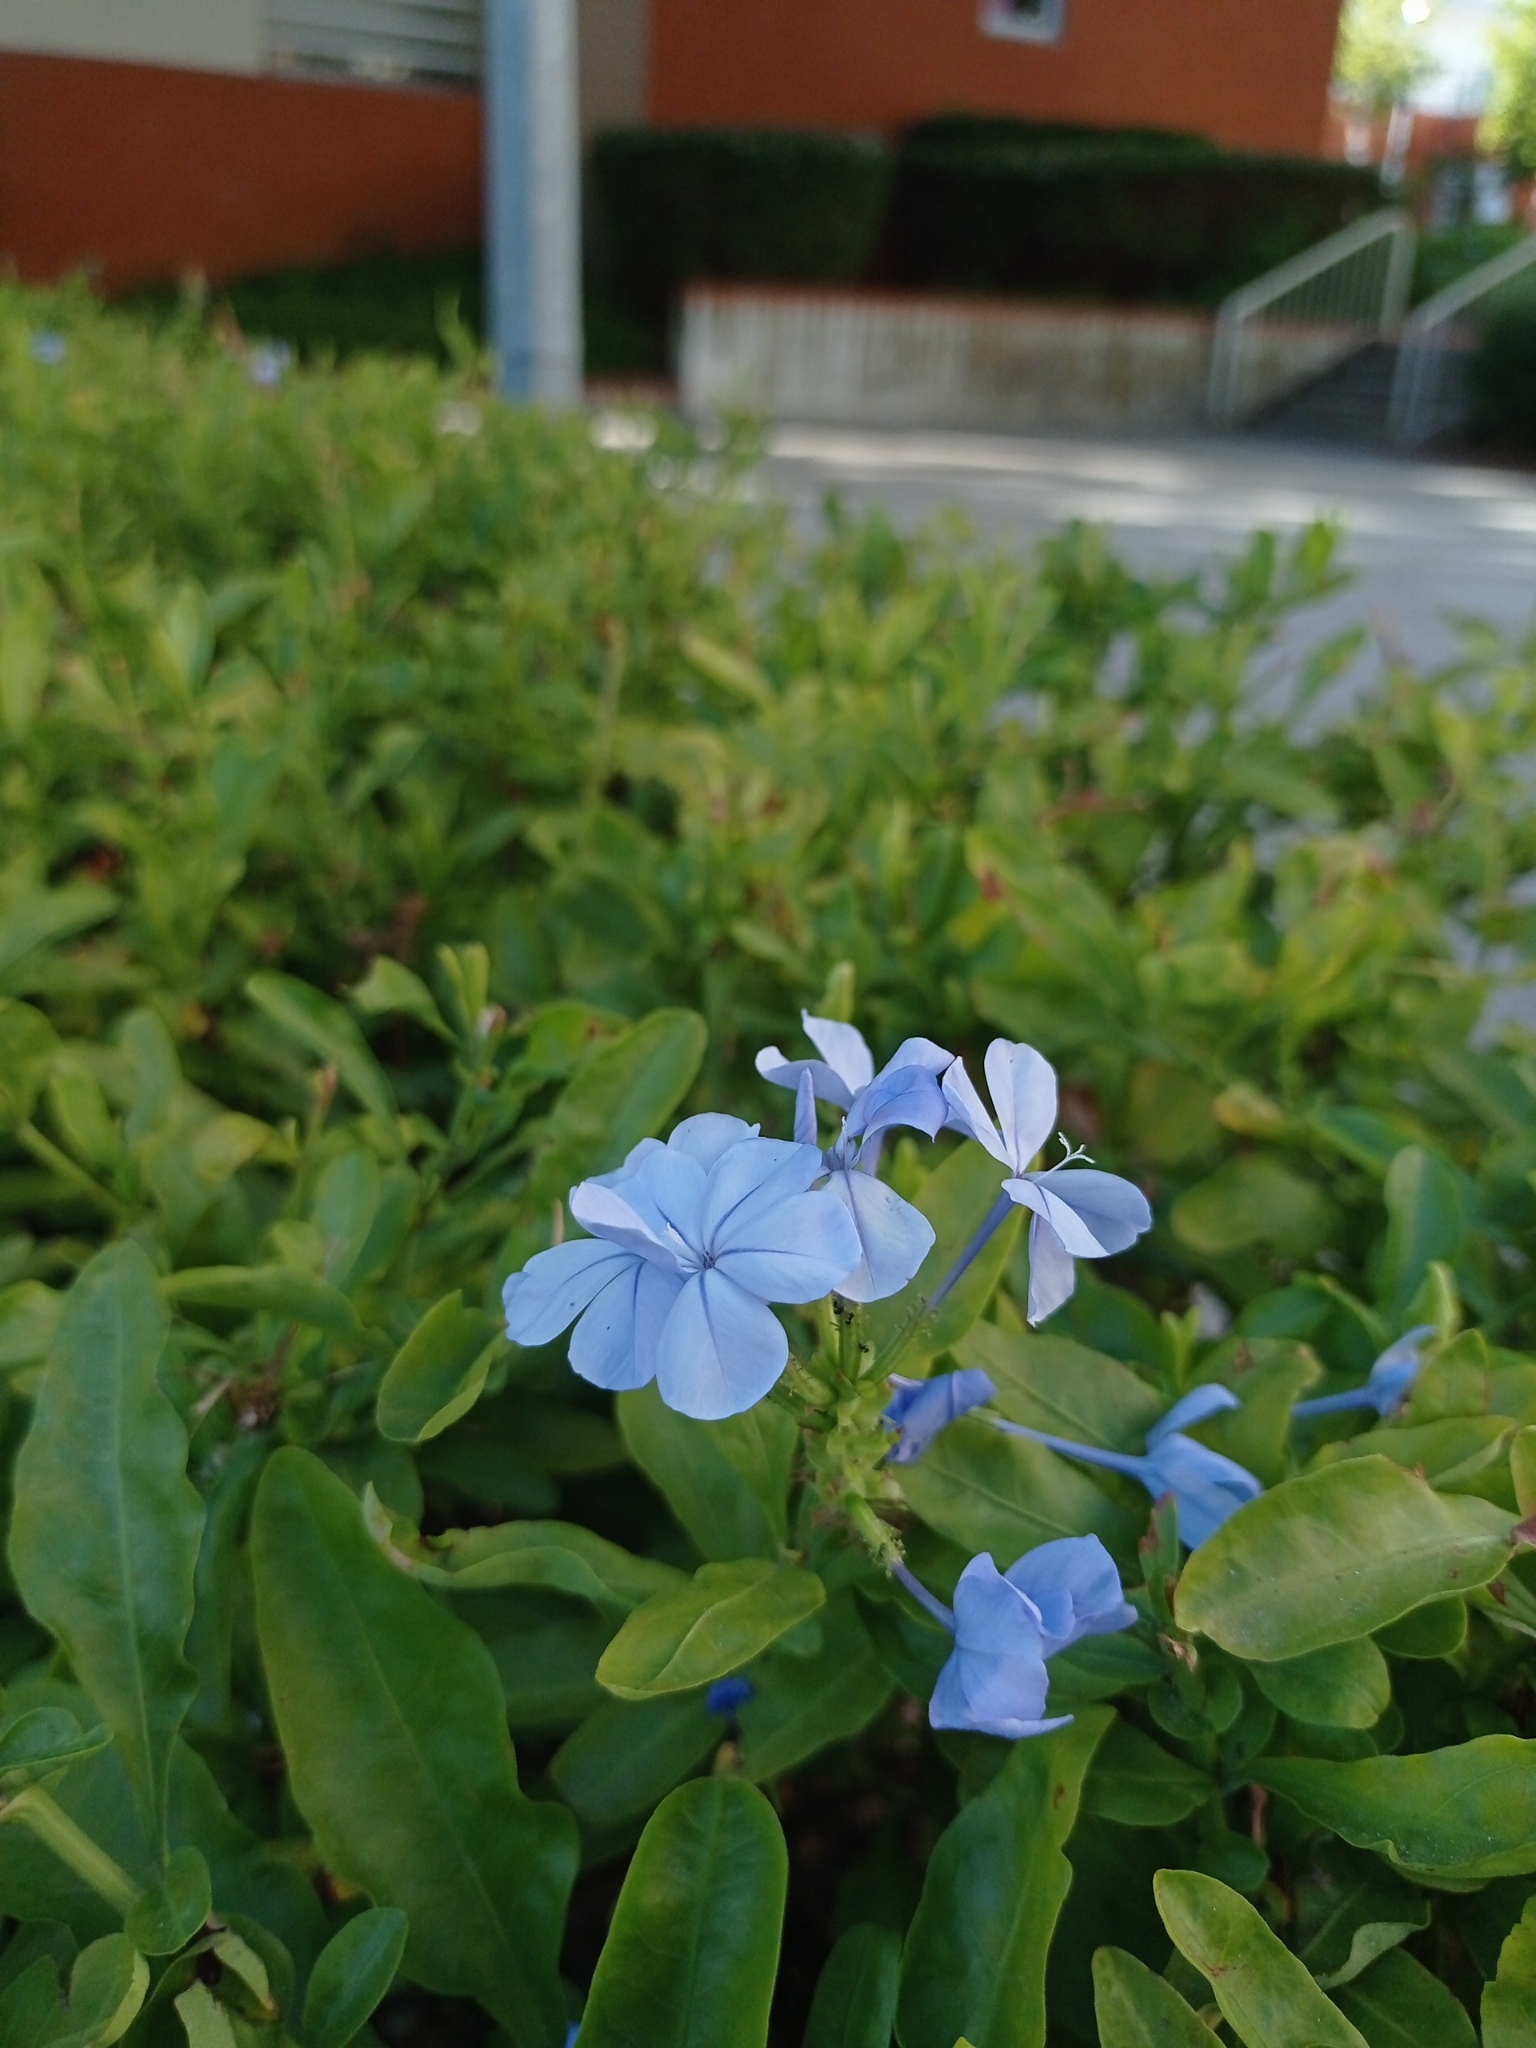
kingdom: Plantae
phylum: Tracheophyta
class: Magnoliopsida
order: Caryophyllales
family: Plumbaginaceae
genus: Plumbago
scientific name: Plumbago auriculata
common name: Cape leadwort
